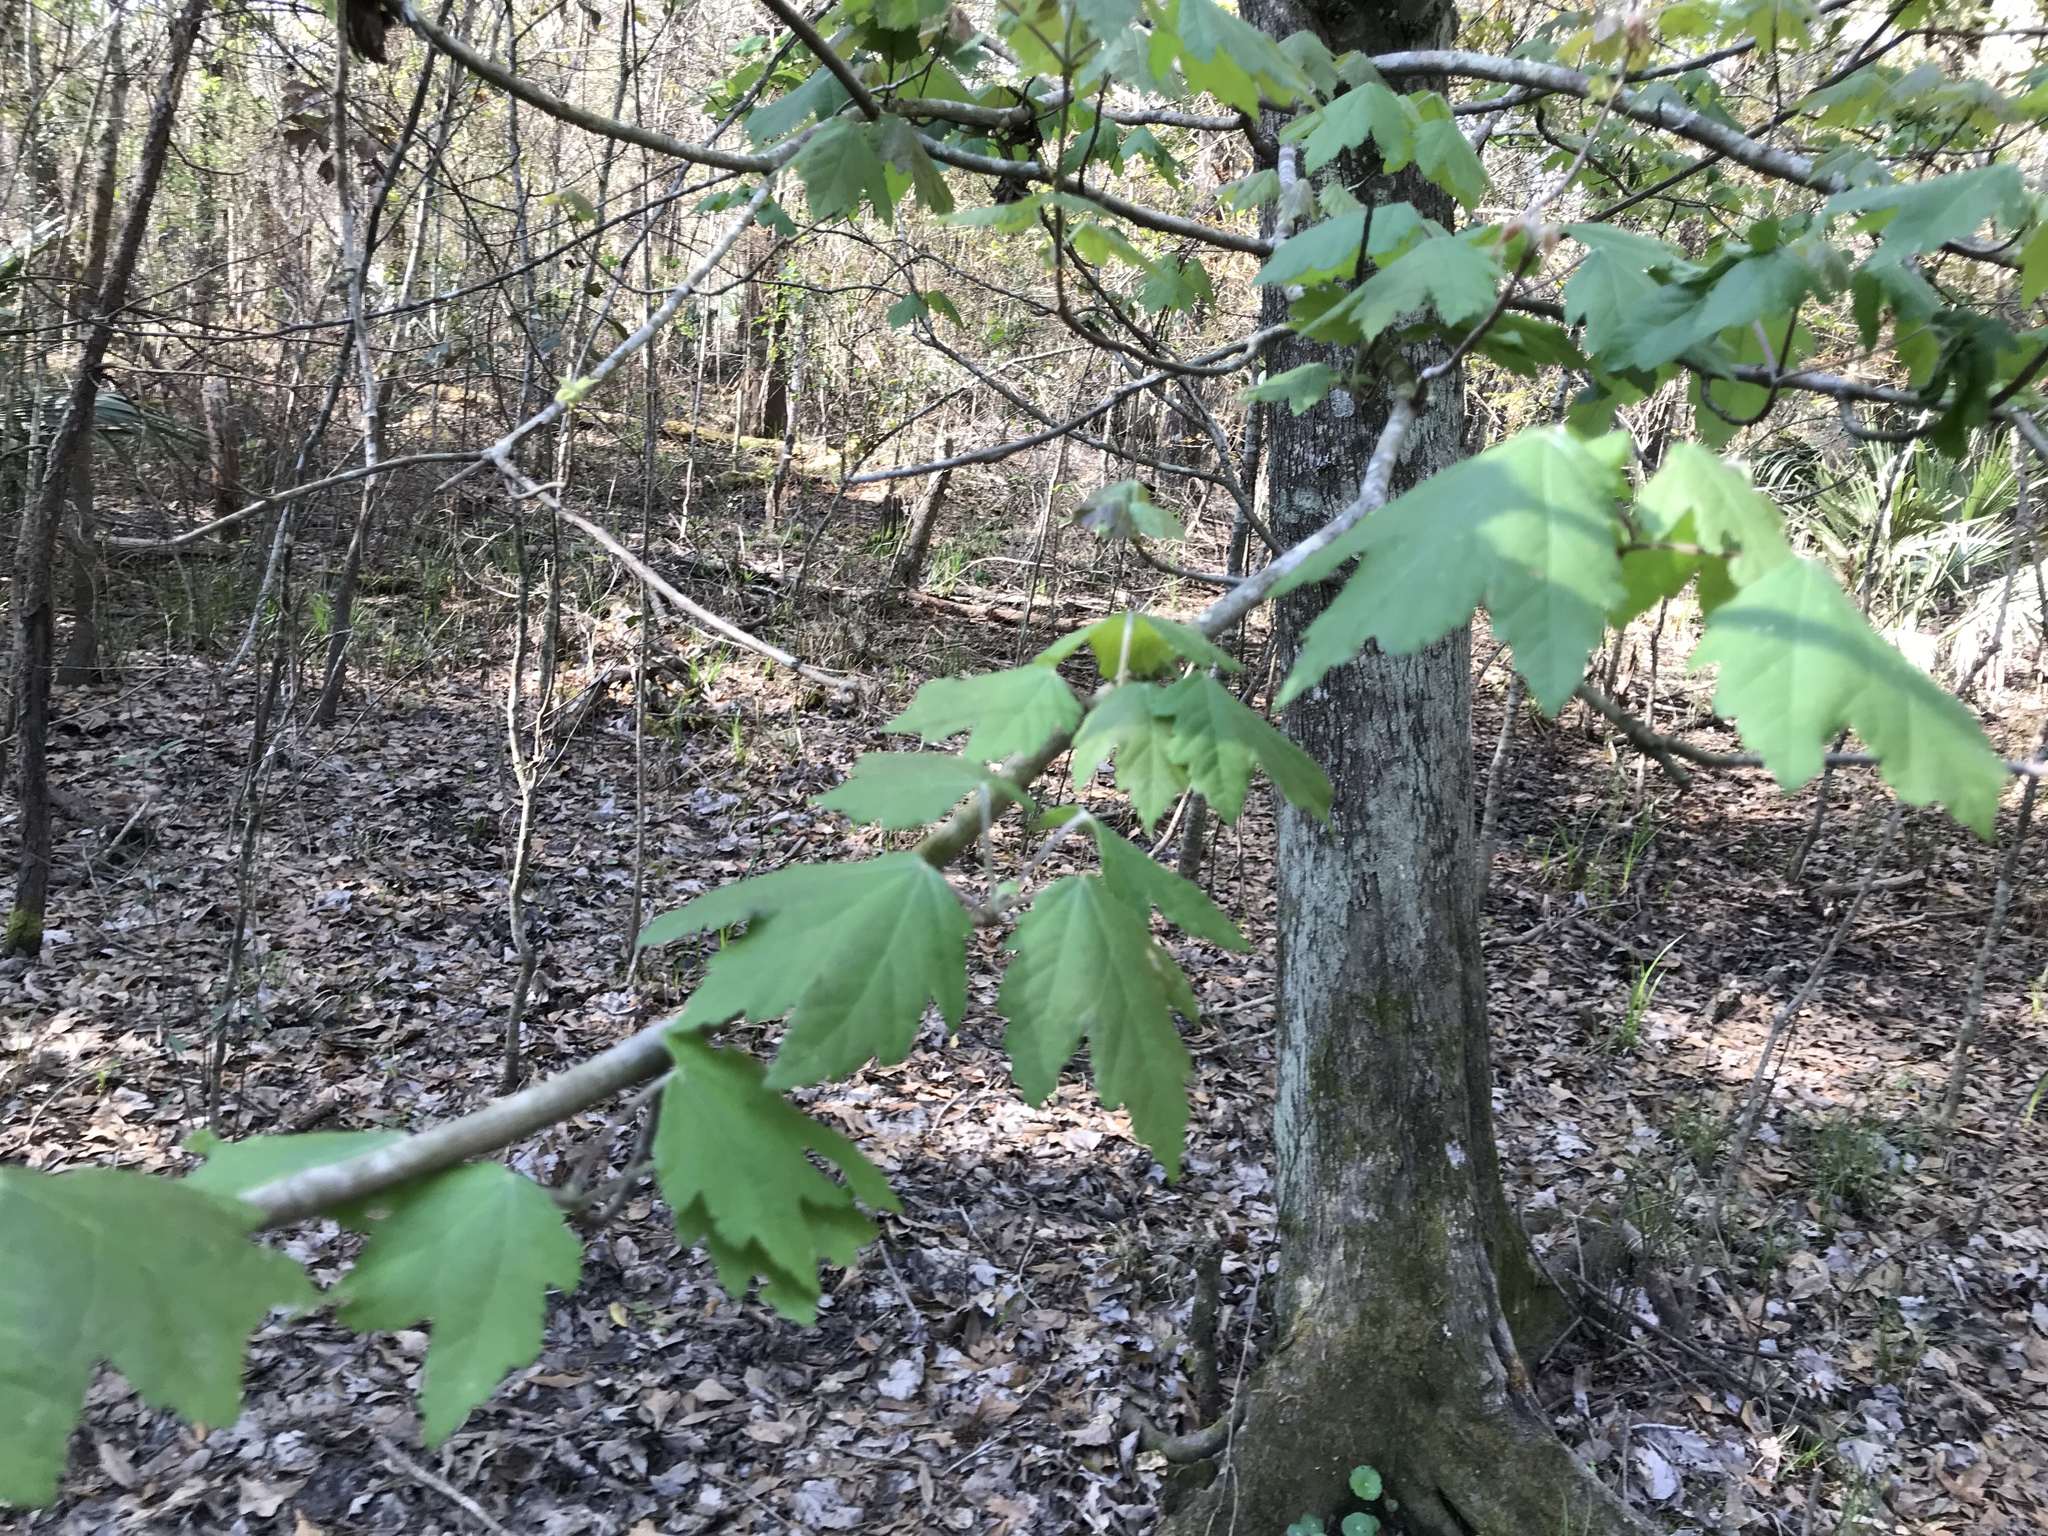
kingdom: Plantae
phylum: Tracheophyta
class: Magnoliopsida
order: Sapindales
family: Sapindaceae
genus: Acer
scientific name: Acer rubrum
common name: Red maple
